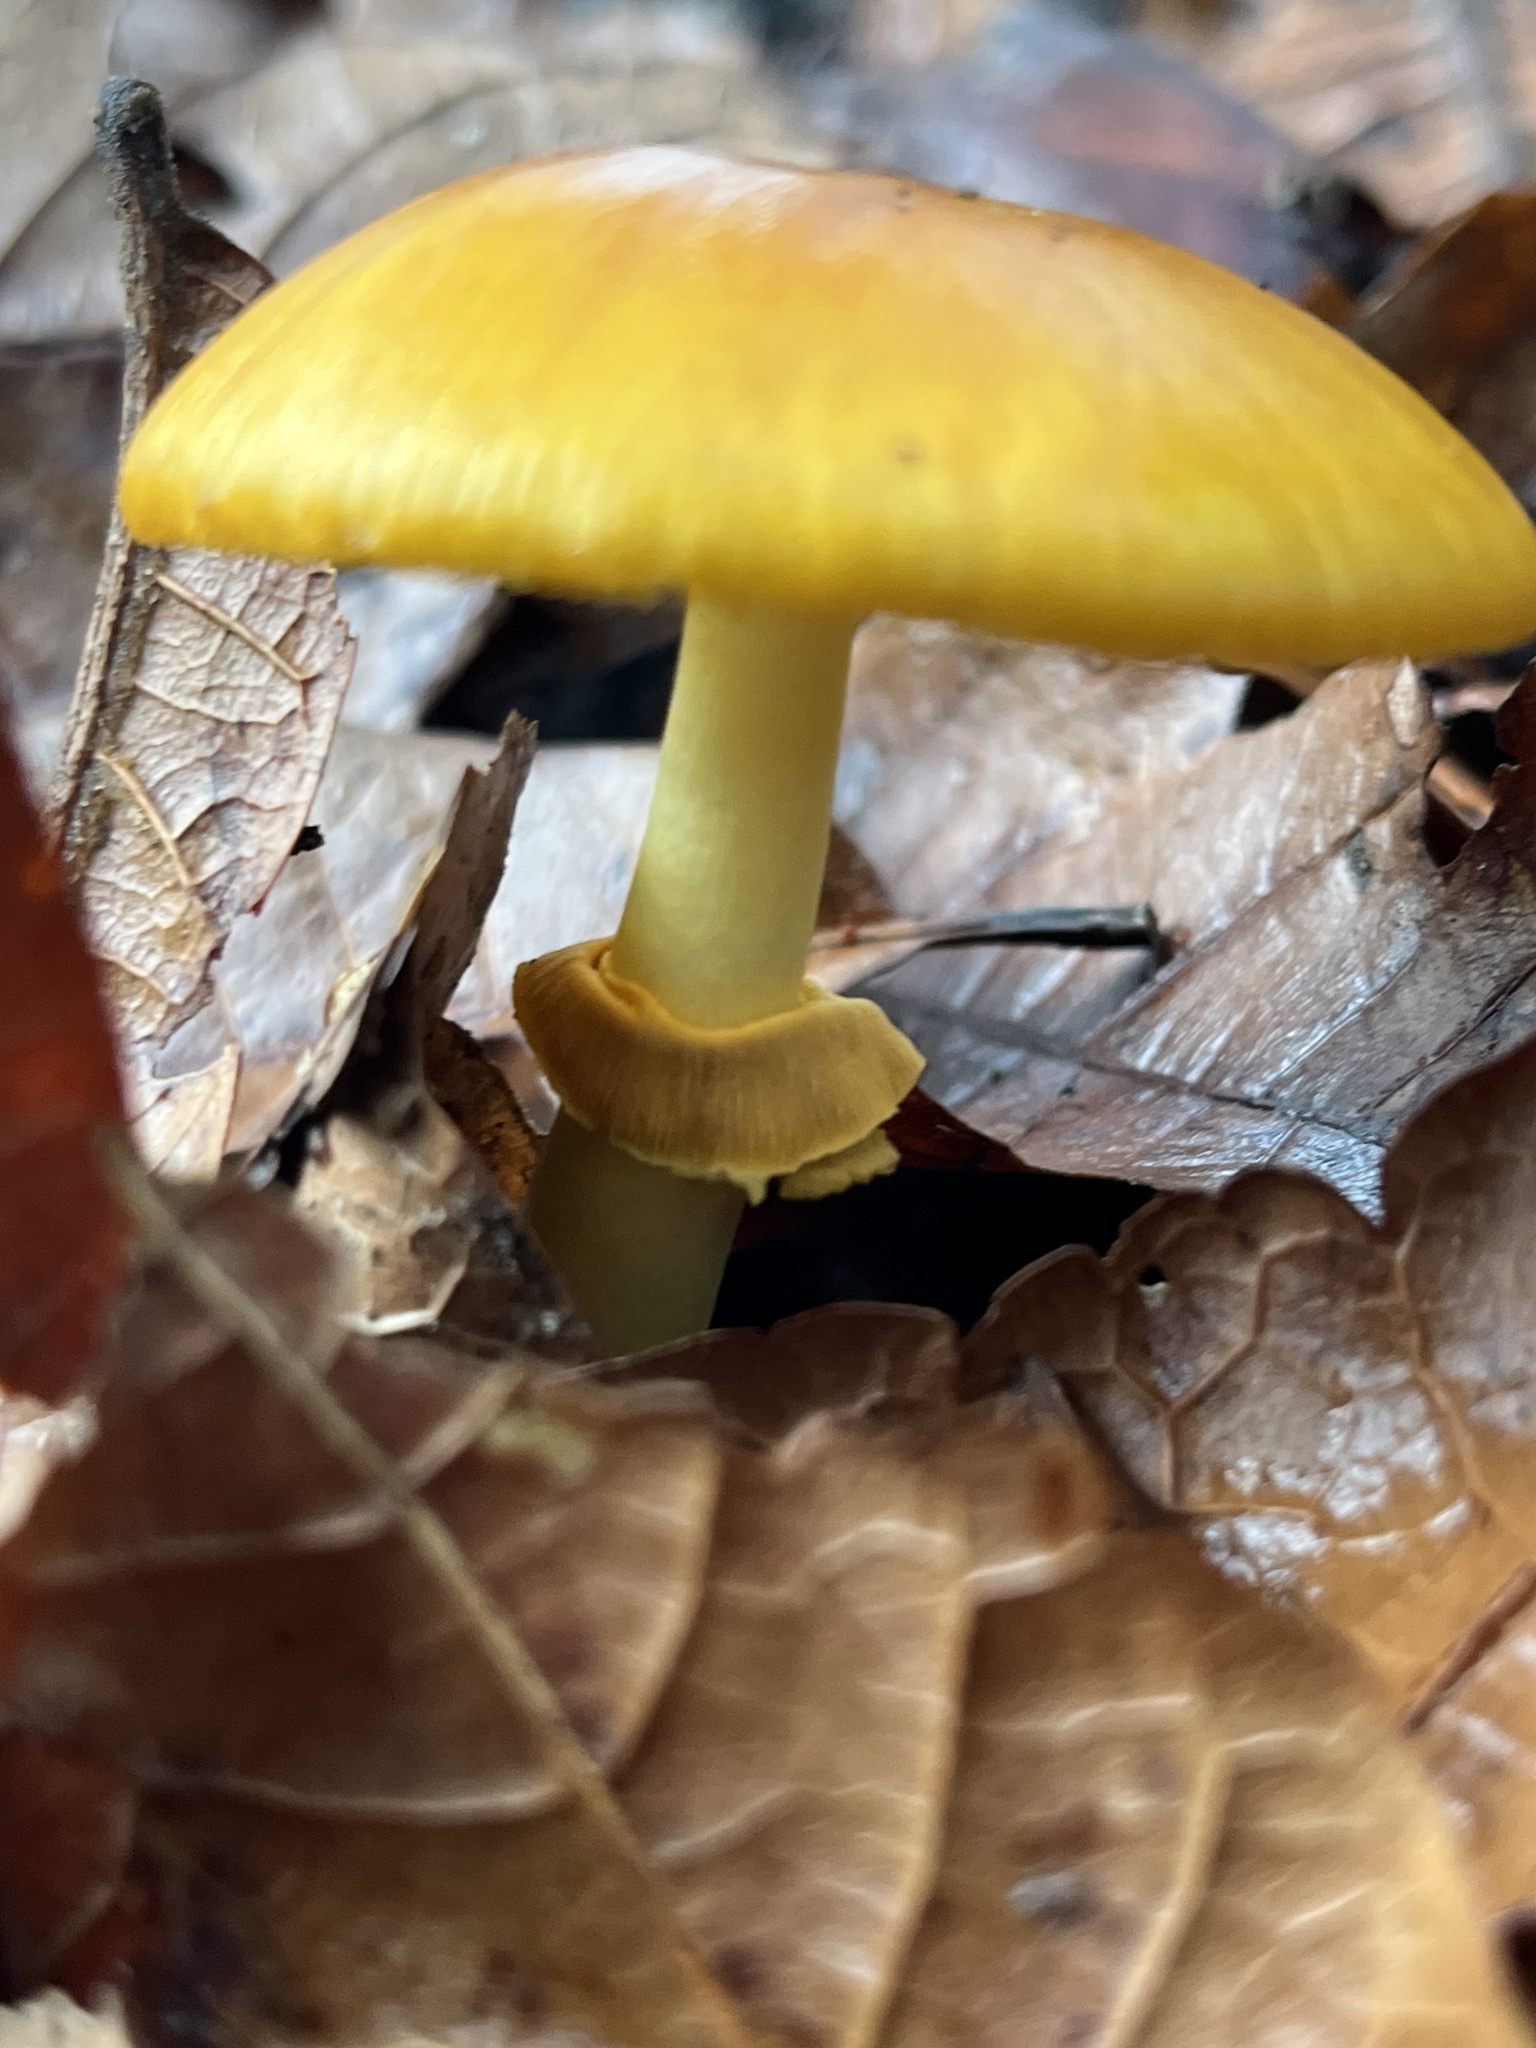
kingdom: Fungi
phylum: Basidiomycota
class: Agaricomycetes
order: Agaricales
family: Amanitaceae
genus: Amanita
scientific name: Amanita flavoconia
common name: Yellow patches
